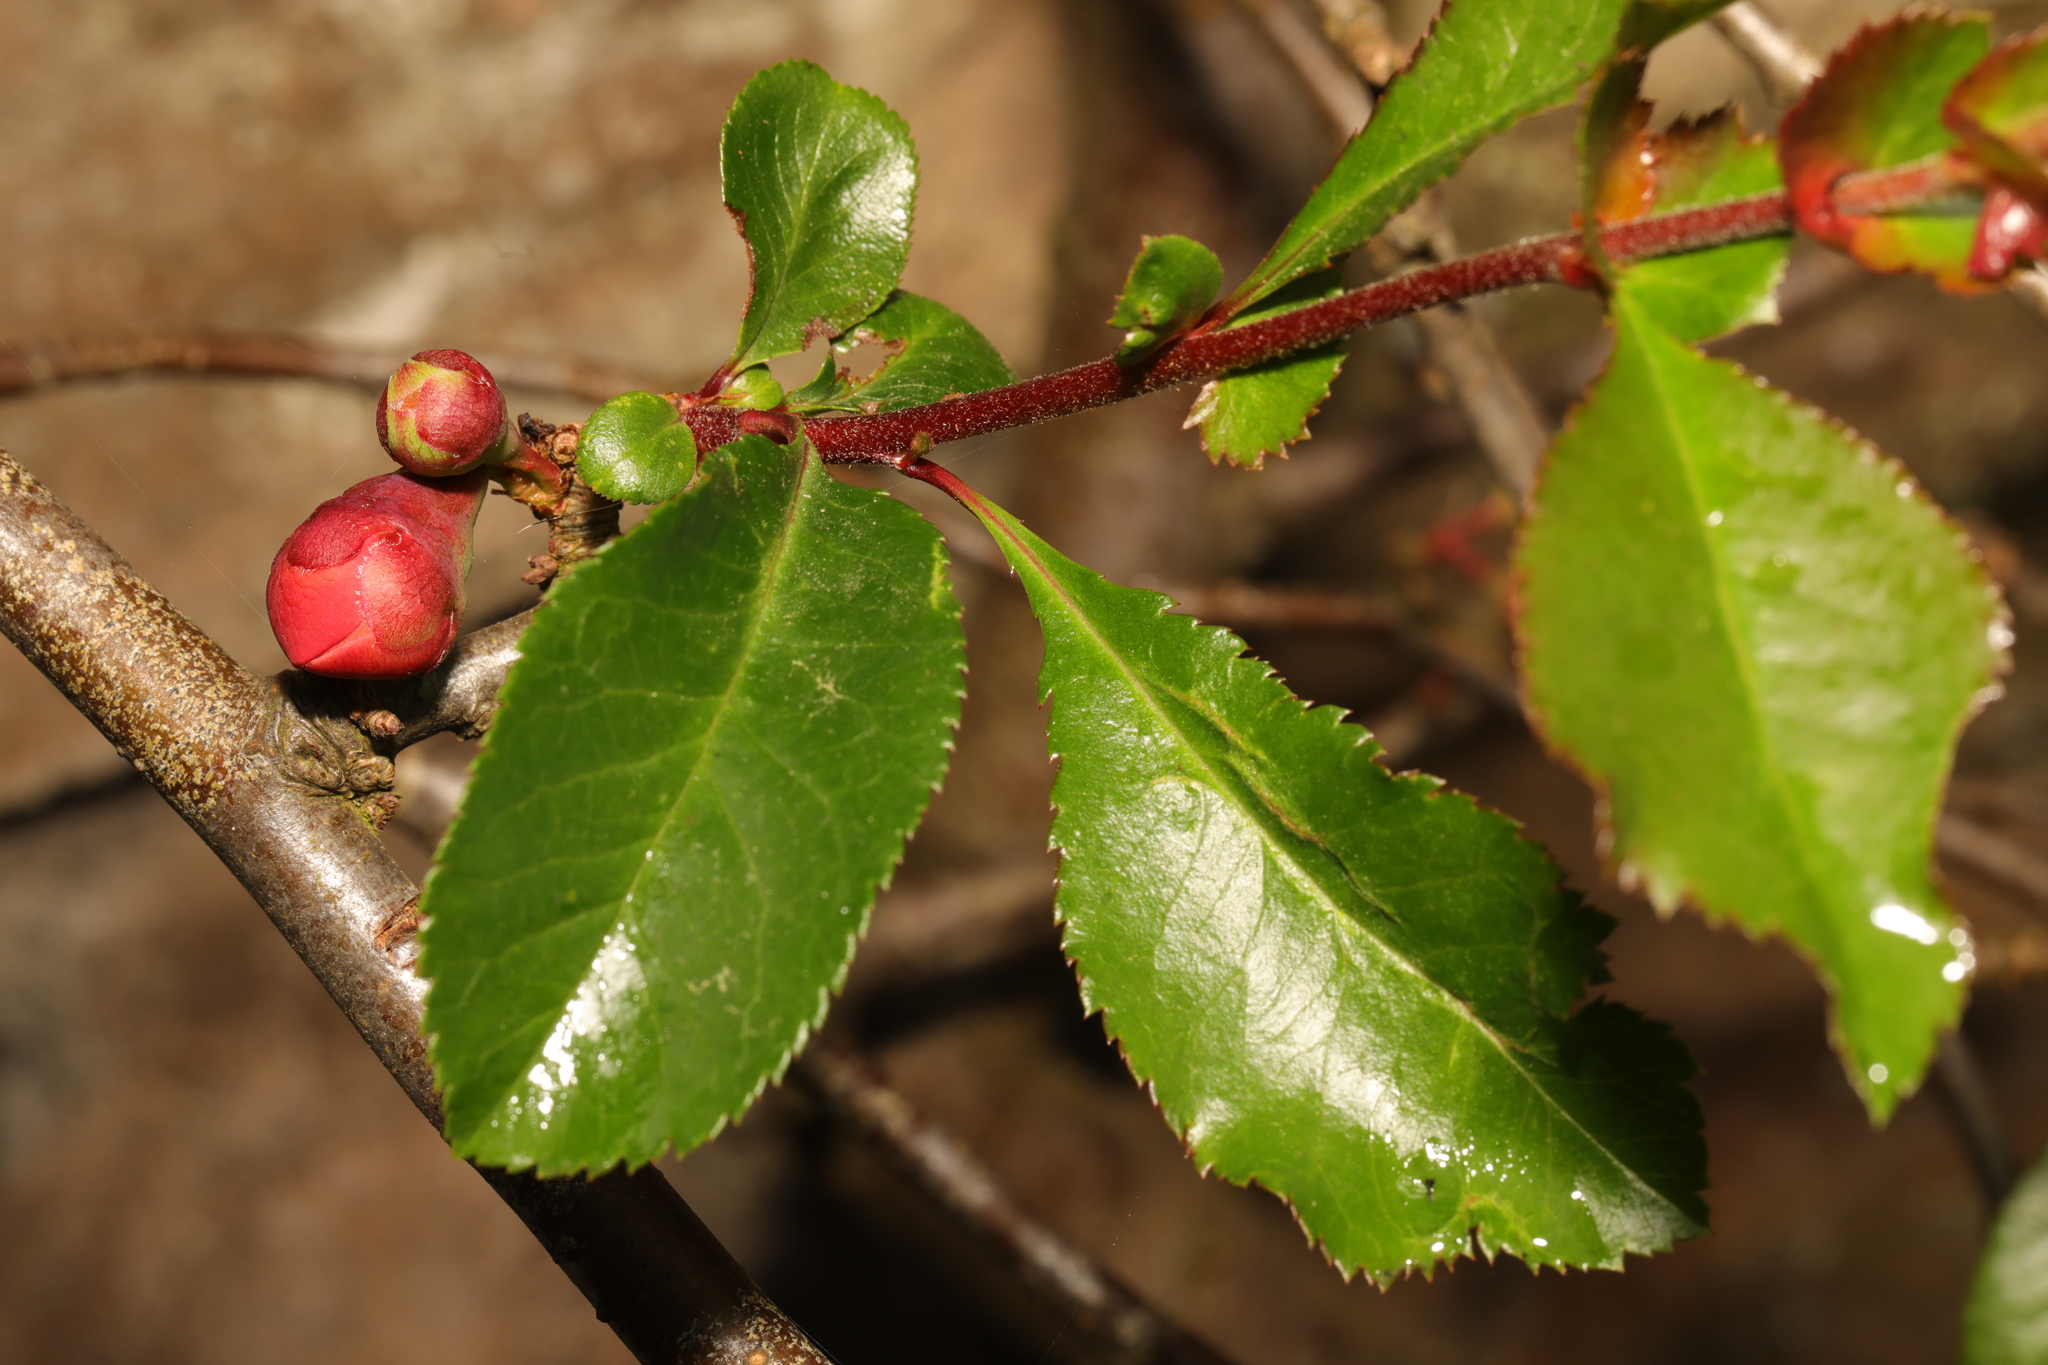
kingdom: Plantae
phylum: Tracheophyta
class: Magnoliopsida
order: Rosales
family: Rosaceae
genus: Chaenomeles
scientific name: Chaenomeles speciosa
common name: Japanese quince
